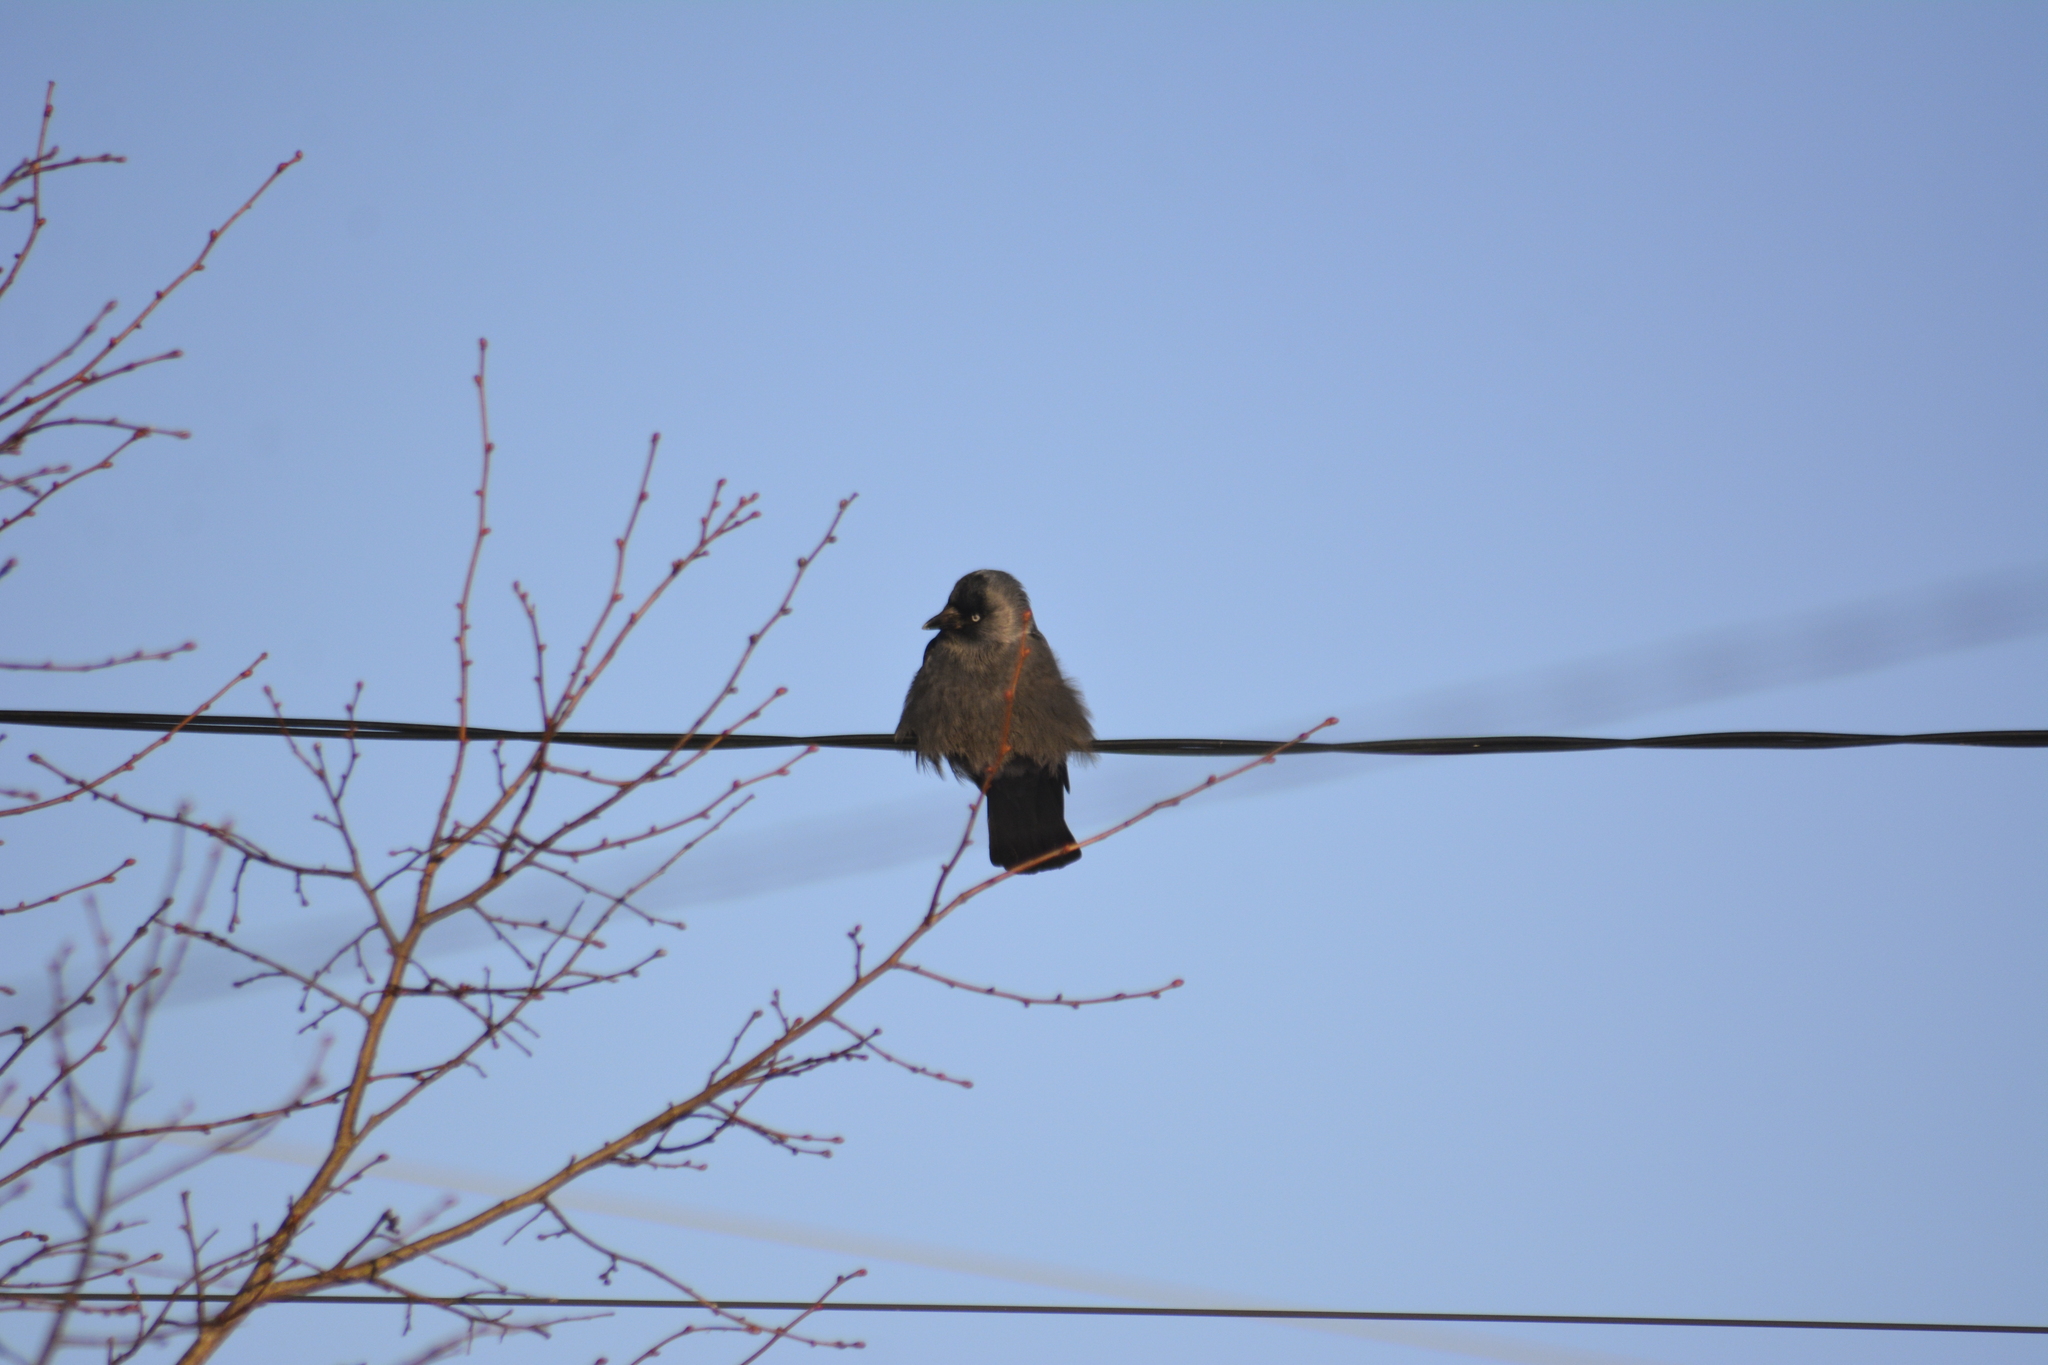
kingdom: Animalia
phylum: Chordata
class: Aves
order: Passeriformes
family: Corvidae
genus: Coloeus
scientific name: Coloeus monedula
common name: Western jackdaw
